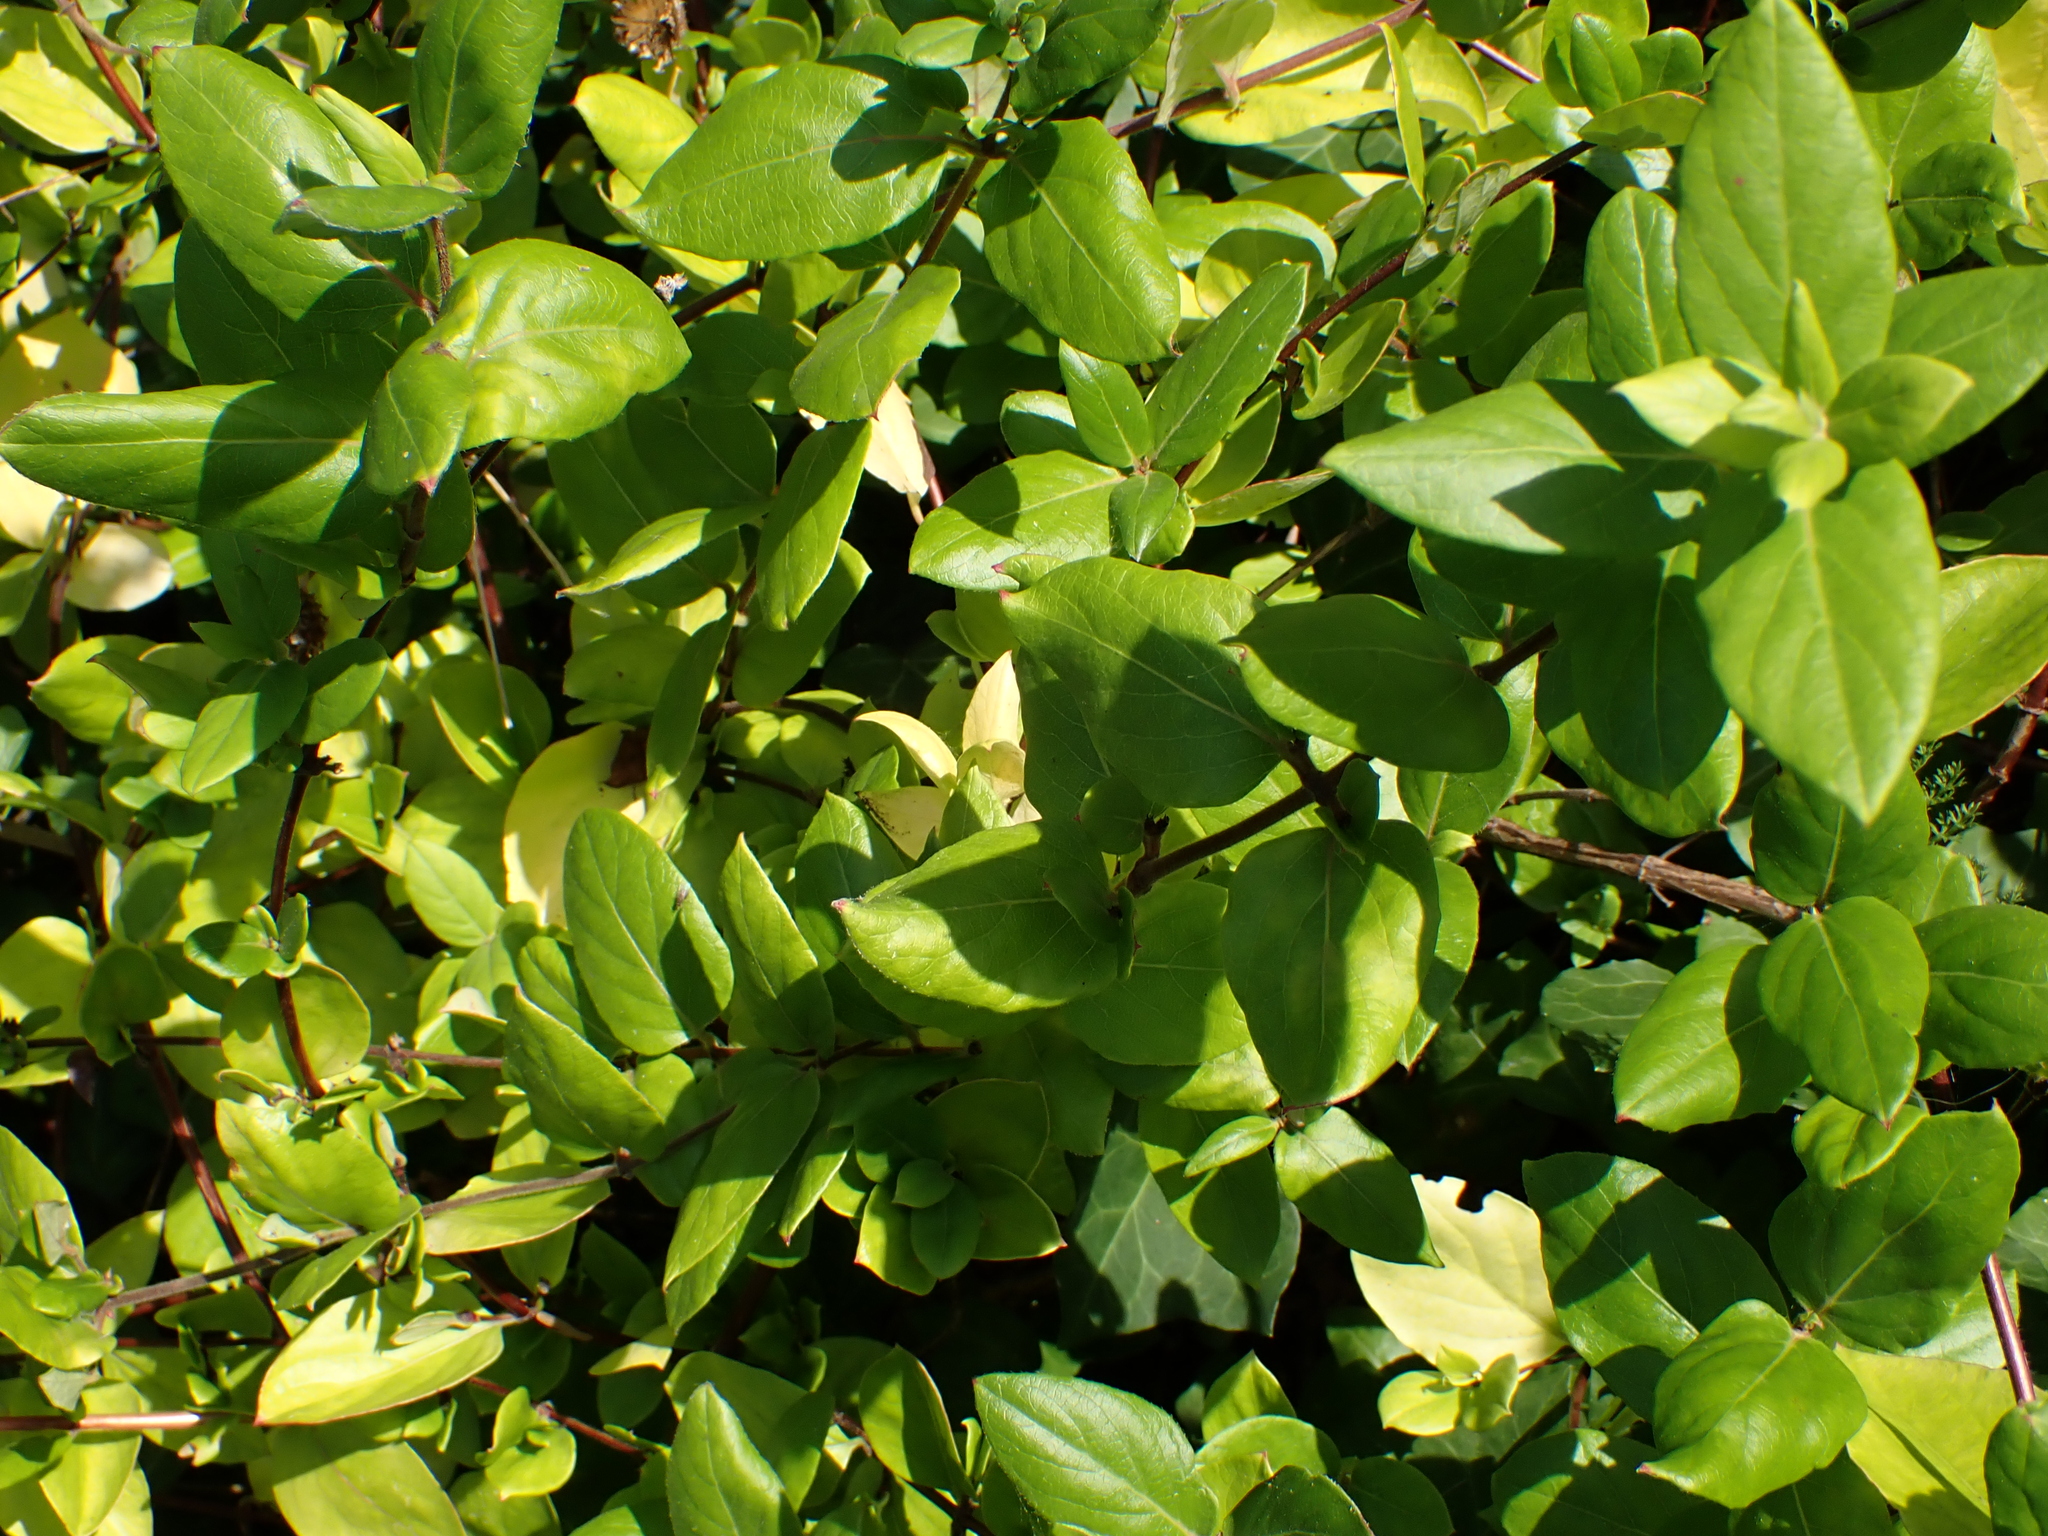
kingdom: Plantae
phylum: Tracheophyta
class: Magnoliopsida
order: Dipsacales
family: Caprifoliaceae
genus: Lonicera
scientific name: Lonicera japonica
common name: Japanese honeysuckle
